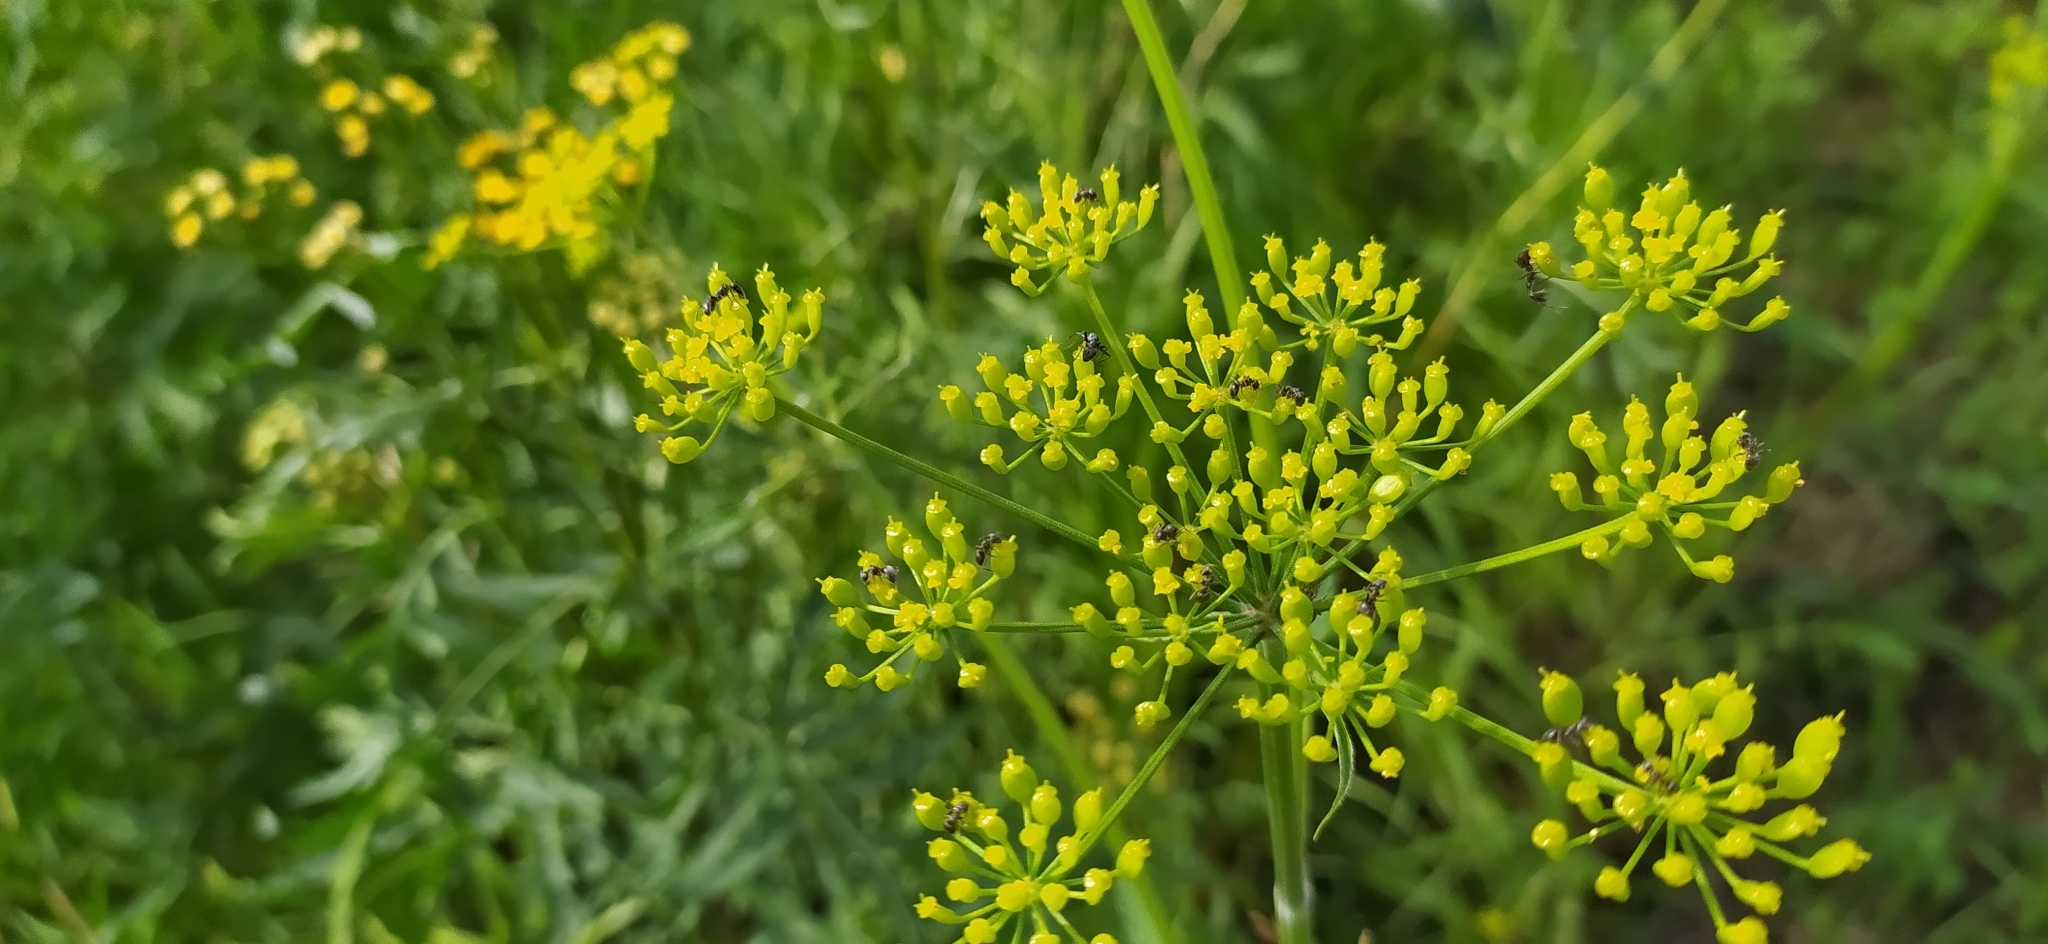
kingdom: Plantae
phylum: Tracheophyta
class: Magnoliopsida
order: Apiales
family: Apiaceae
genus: Pastinaca
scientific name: Pastinaca sativa
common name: Wild parsnip
